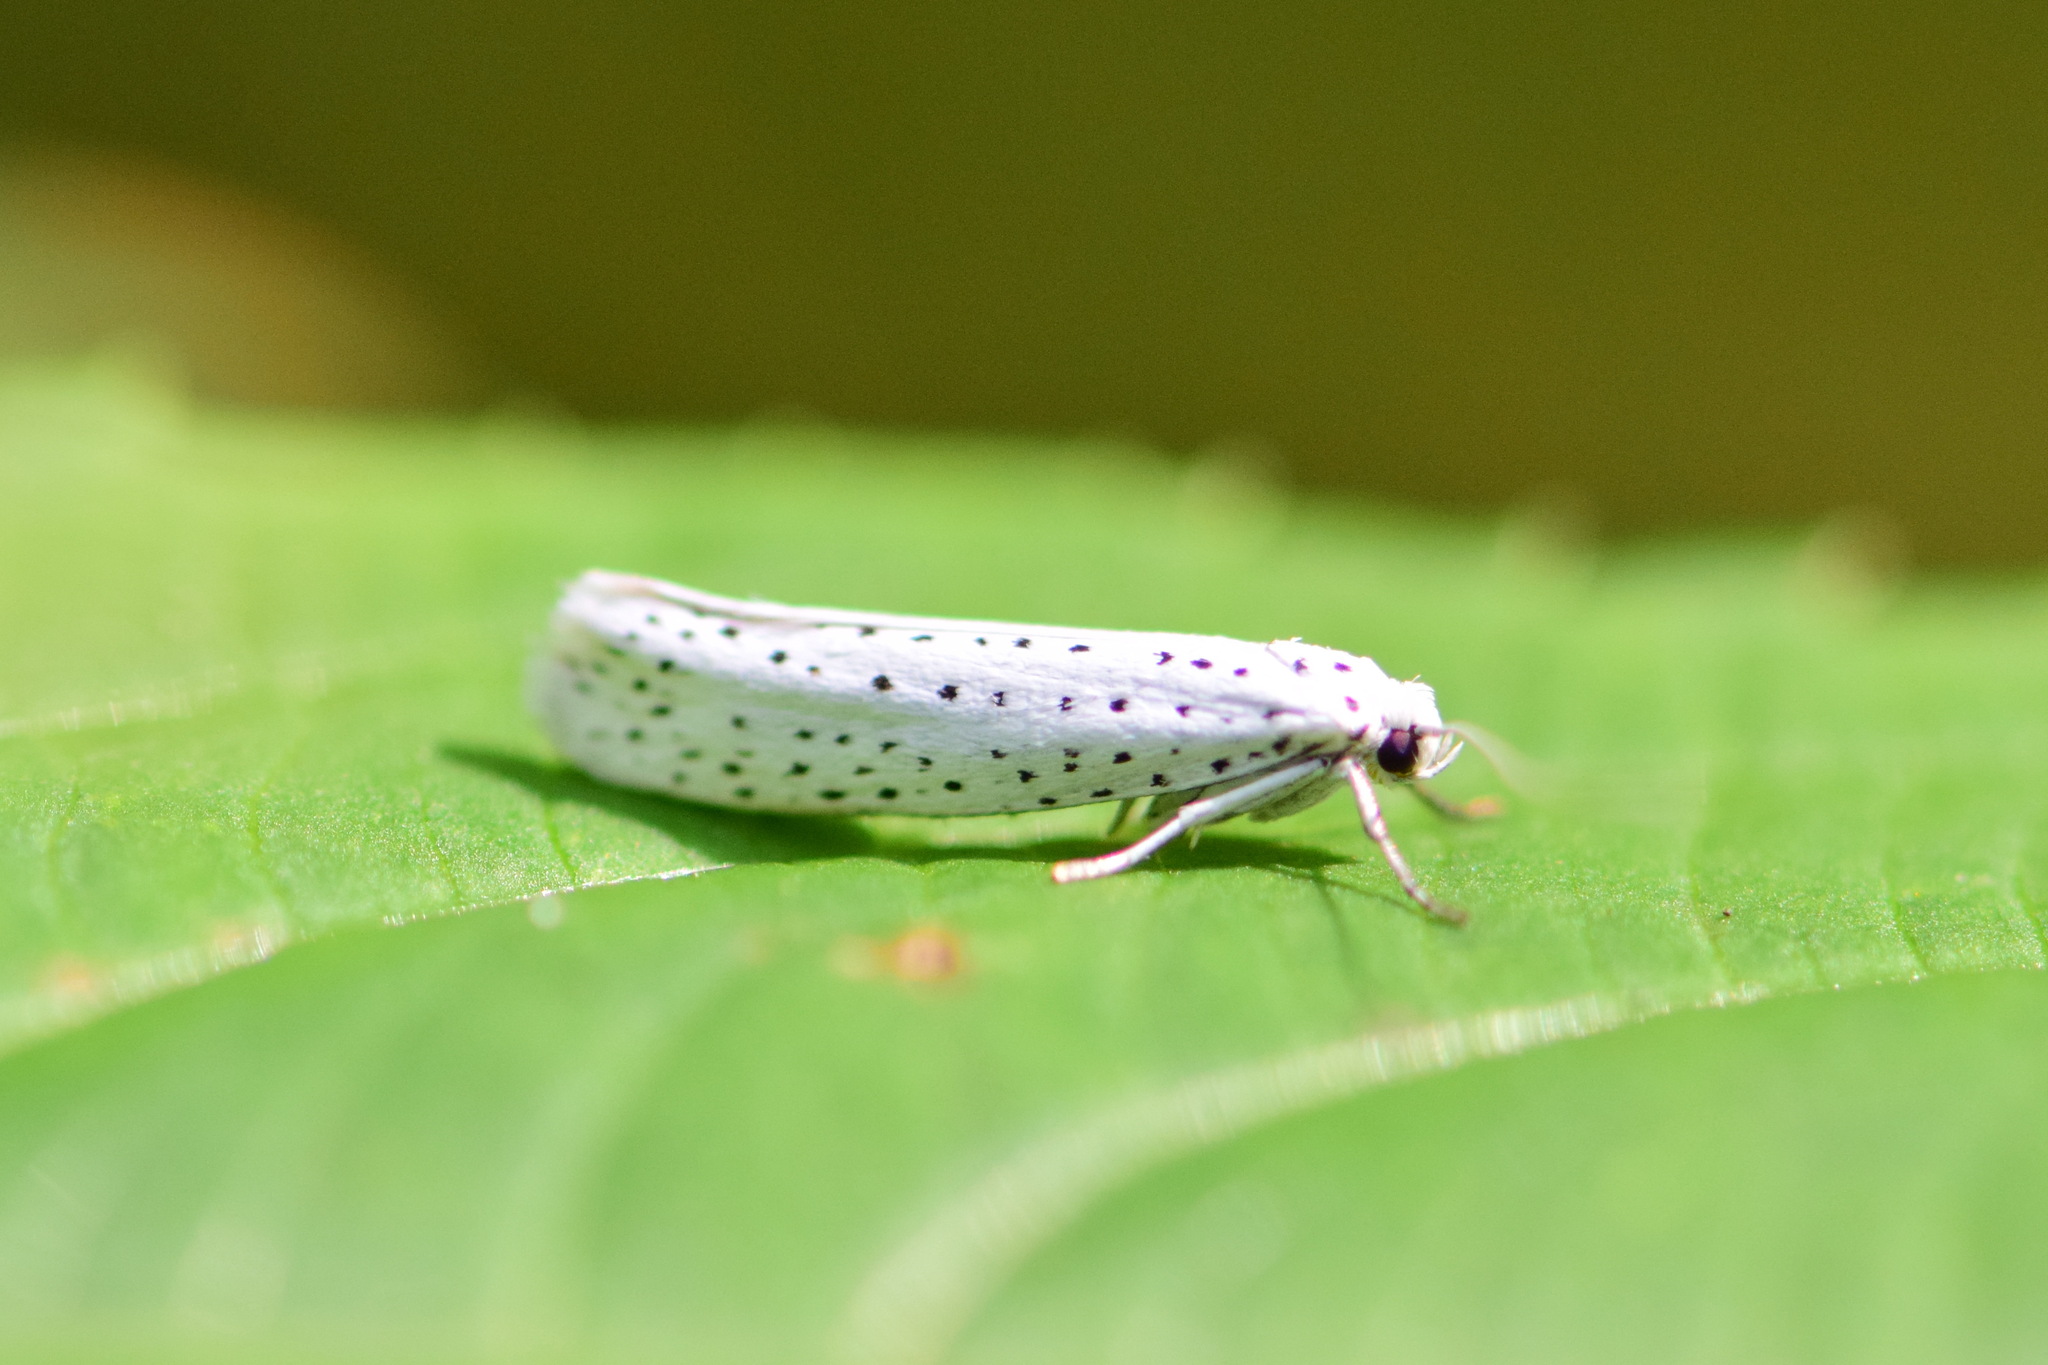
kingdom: Animalia
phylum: Arthropoda
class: Insecta
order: Lepidoptera
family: Yponomeutidae
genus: Yponomeuta
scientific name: Yponomeuta evonymella
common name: Bird-cherry ermine
